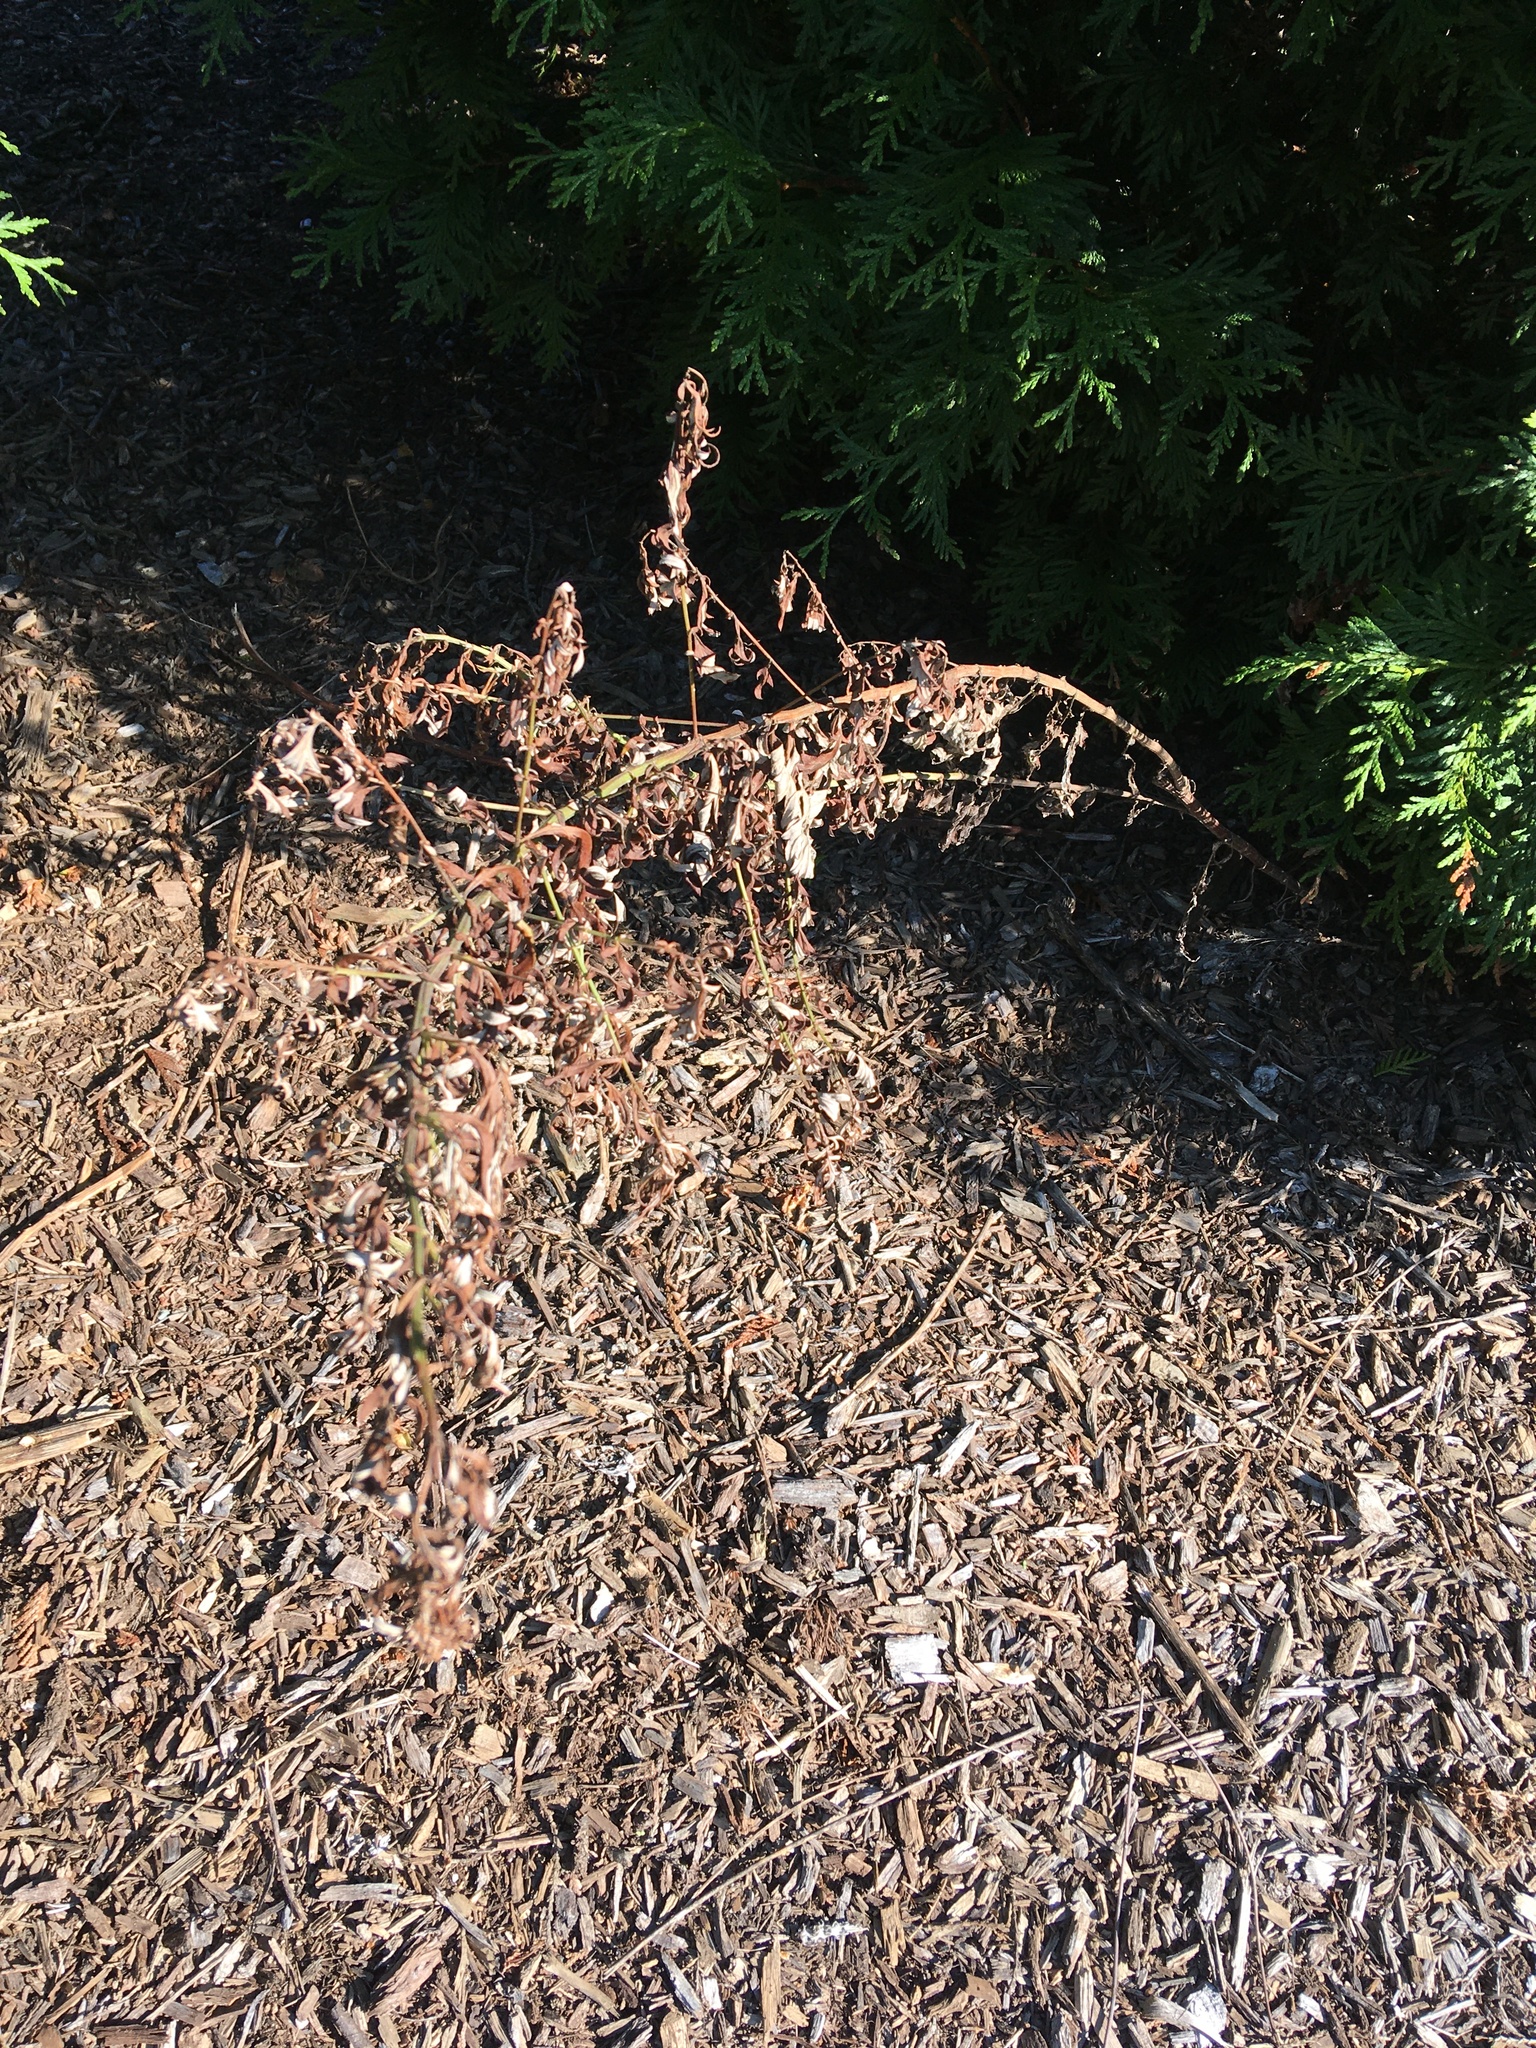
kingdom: Plantae
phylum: Tracheophyta
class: Magnoliopsida
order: Asterales
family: Asteraceae
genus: Artemisia
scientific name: Artemisia vulgaris
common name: Mugwort
